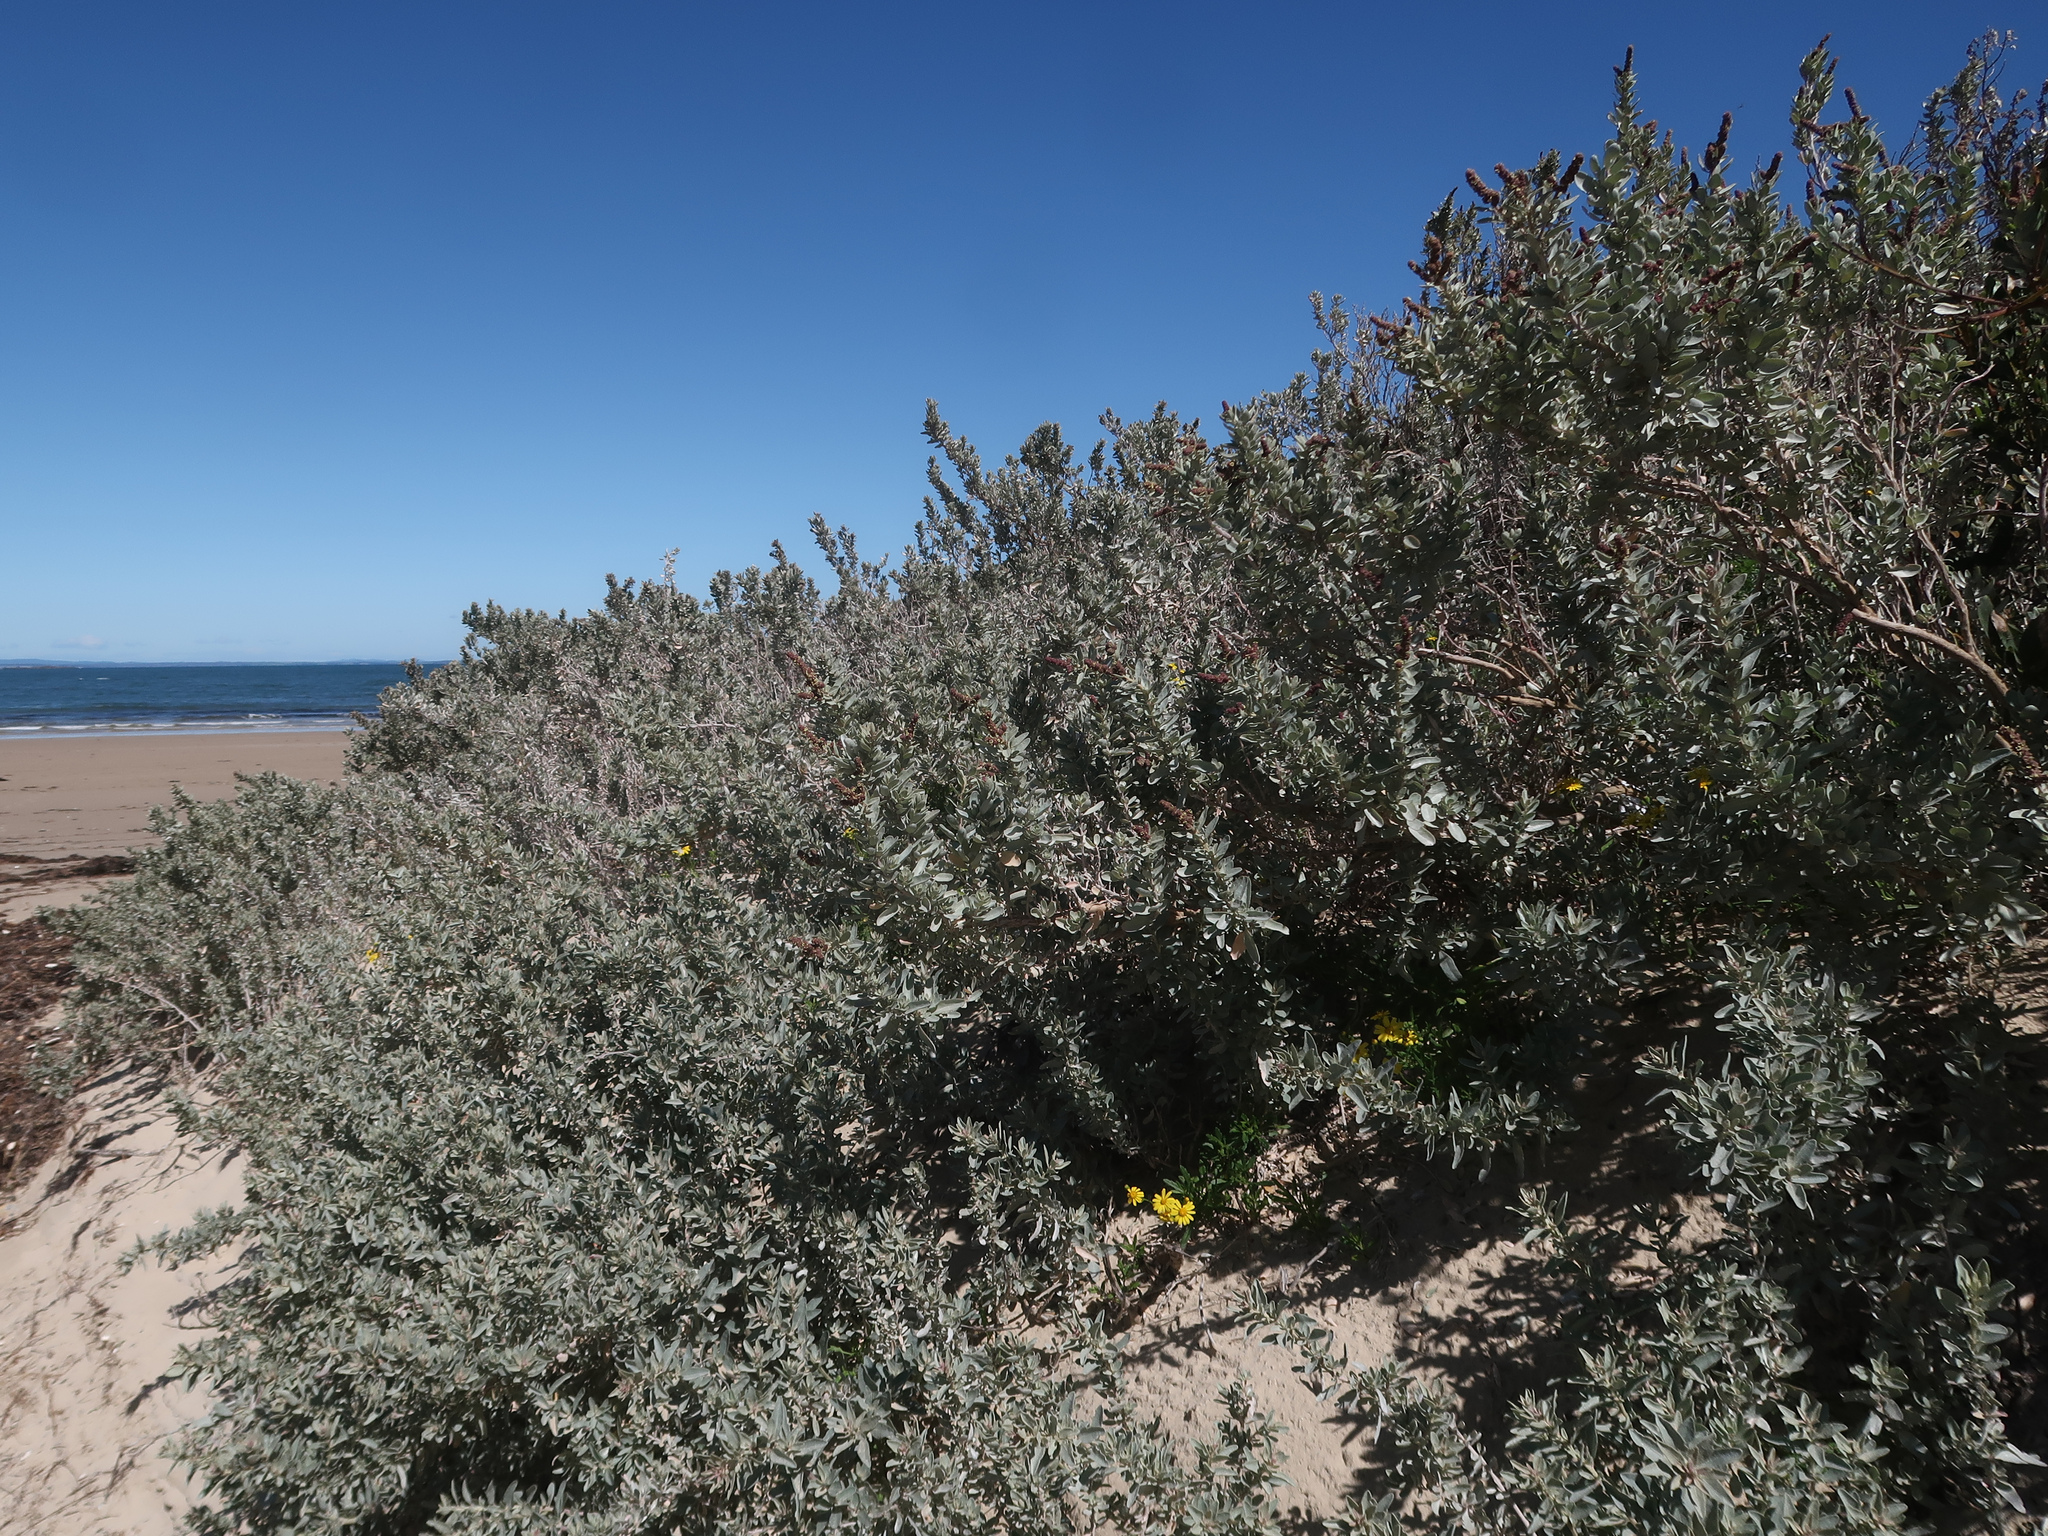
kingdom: Plantae
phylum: Tracheophyta
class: Magnoliopsida
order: Caryophyllales
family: Amaranthaceae
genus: Atriplex
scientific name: Atriplex cinerea
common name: Grey saltbush
